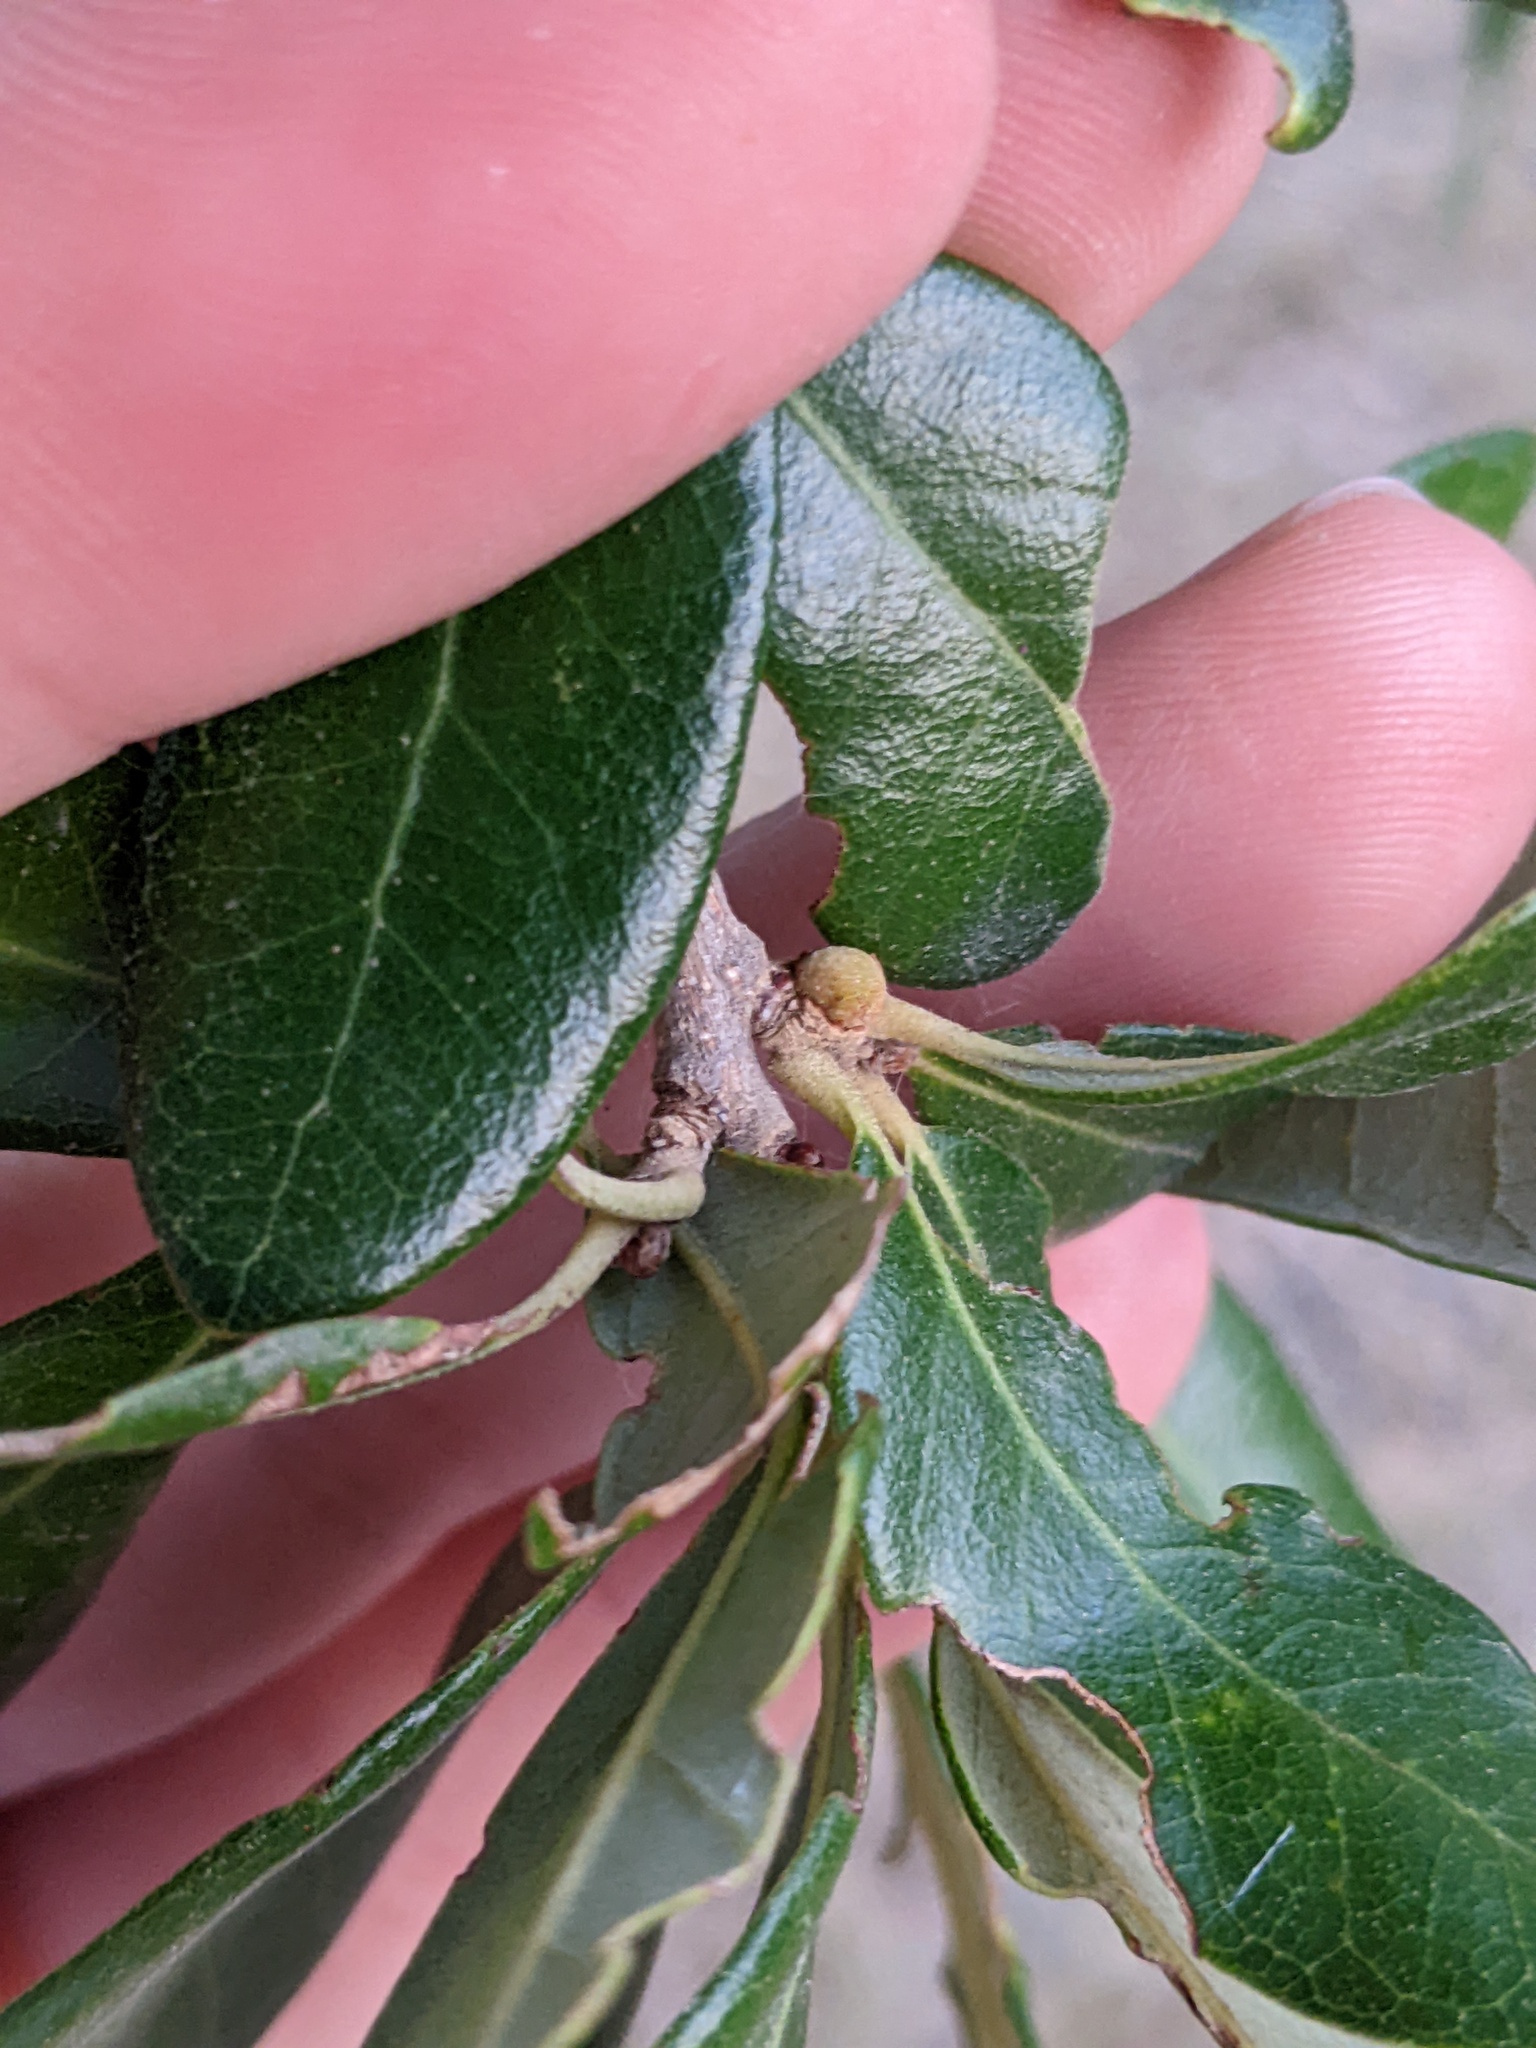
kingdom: Animalia
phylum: Arthropoda
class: Insecta
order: Hymenoptera
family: Cynipidae
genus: Disholcaspis
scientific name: Disholcaspis
